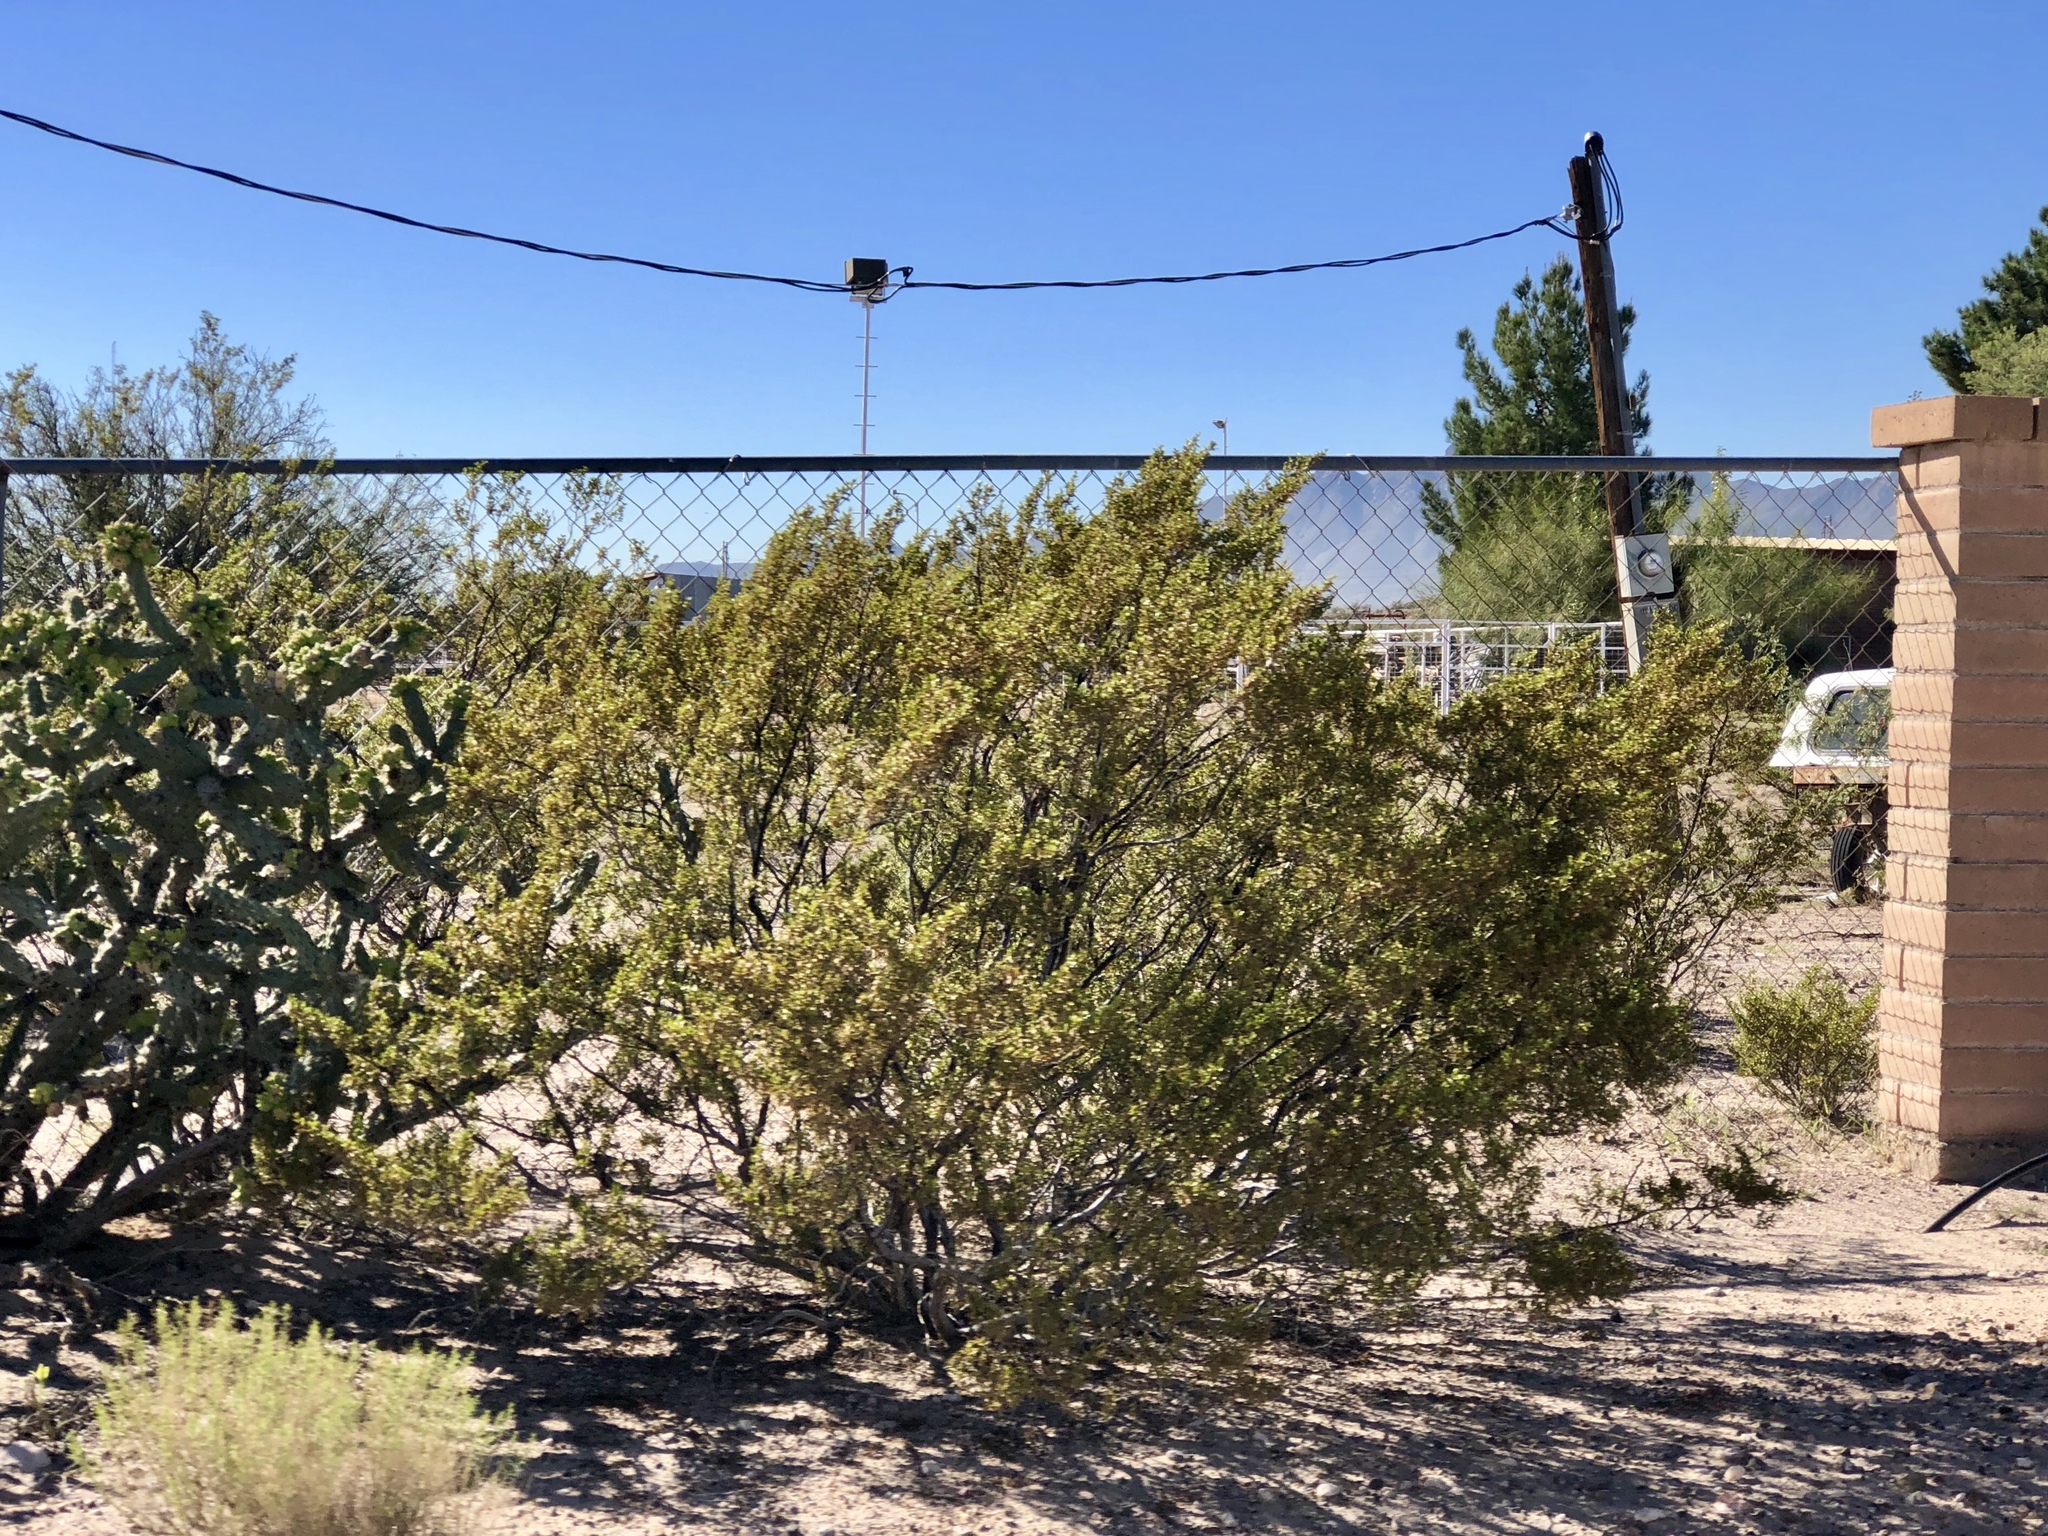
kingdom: Plantae
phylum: Tracheophyta
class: Magnoliopsida
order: Zygophyllales
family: Zygophyllaceae
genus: Larrea
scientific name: Larrea tridentata
